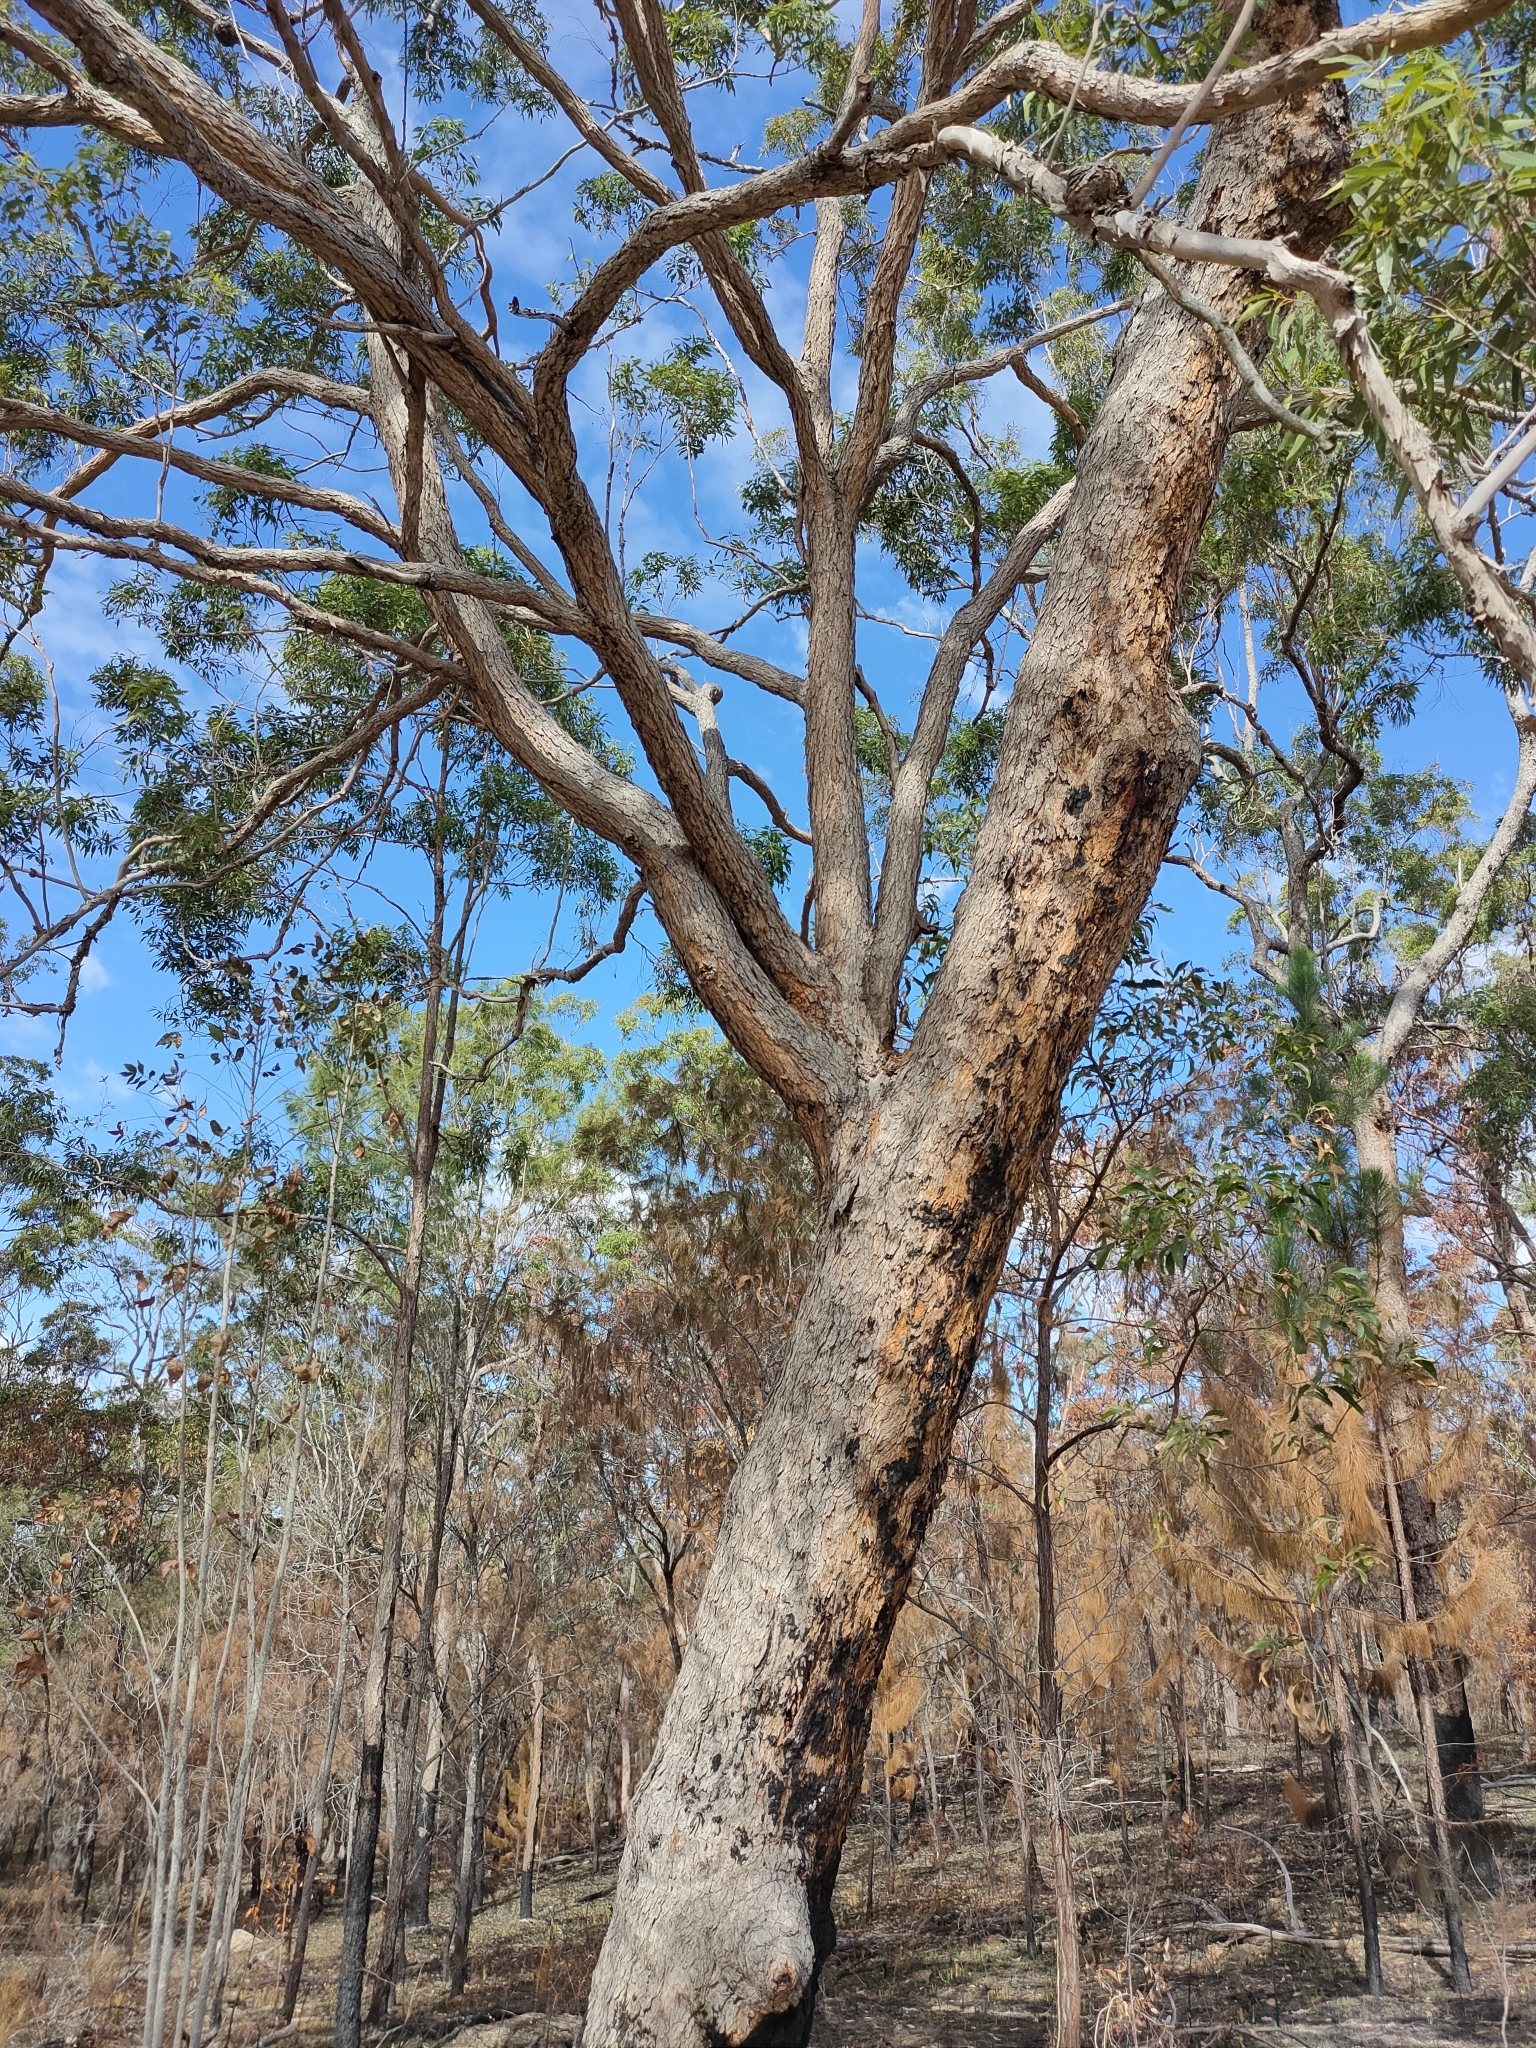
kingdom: Plantae
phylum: Tracheophyta
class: Magnoliopsida
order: Myrtales
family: Myrtaceae
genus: Corymbia
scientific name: Corymbia trachyphloia
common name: Brown-bloodwood
